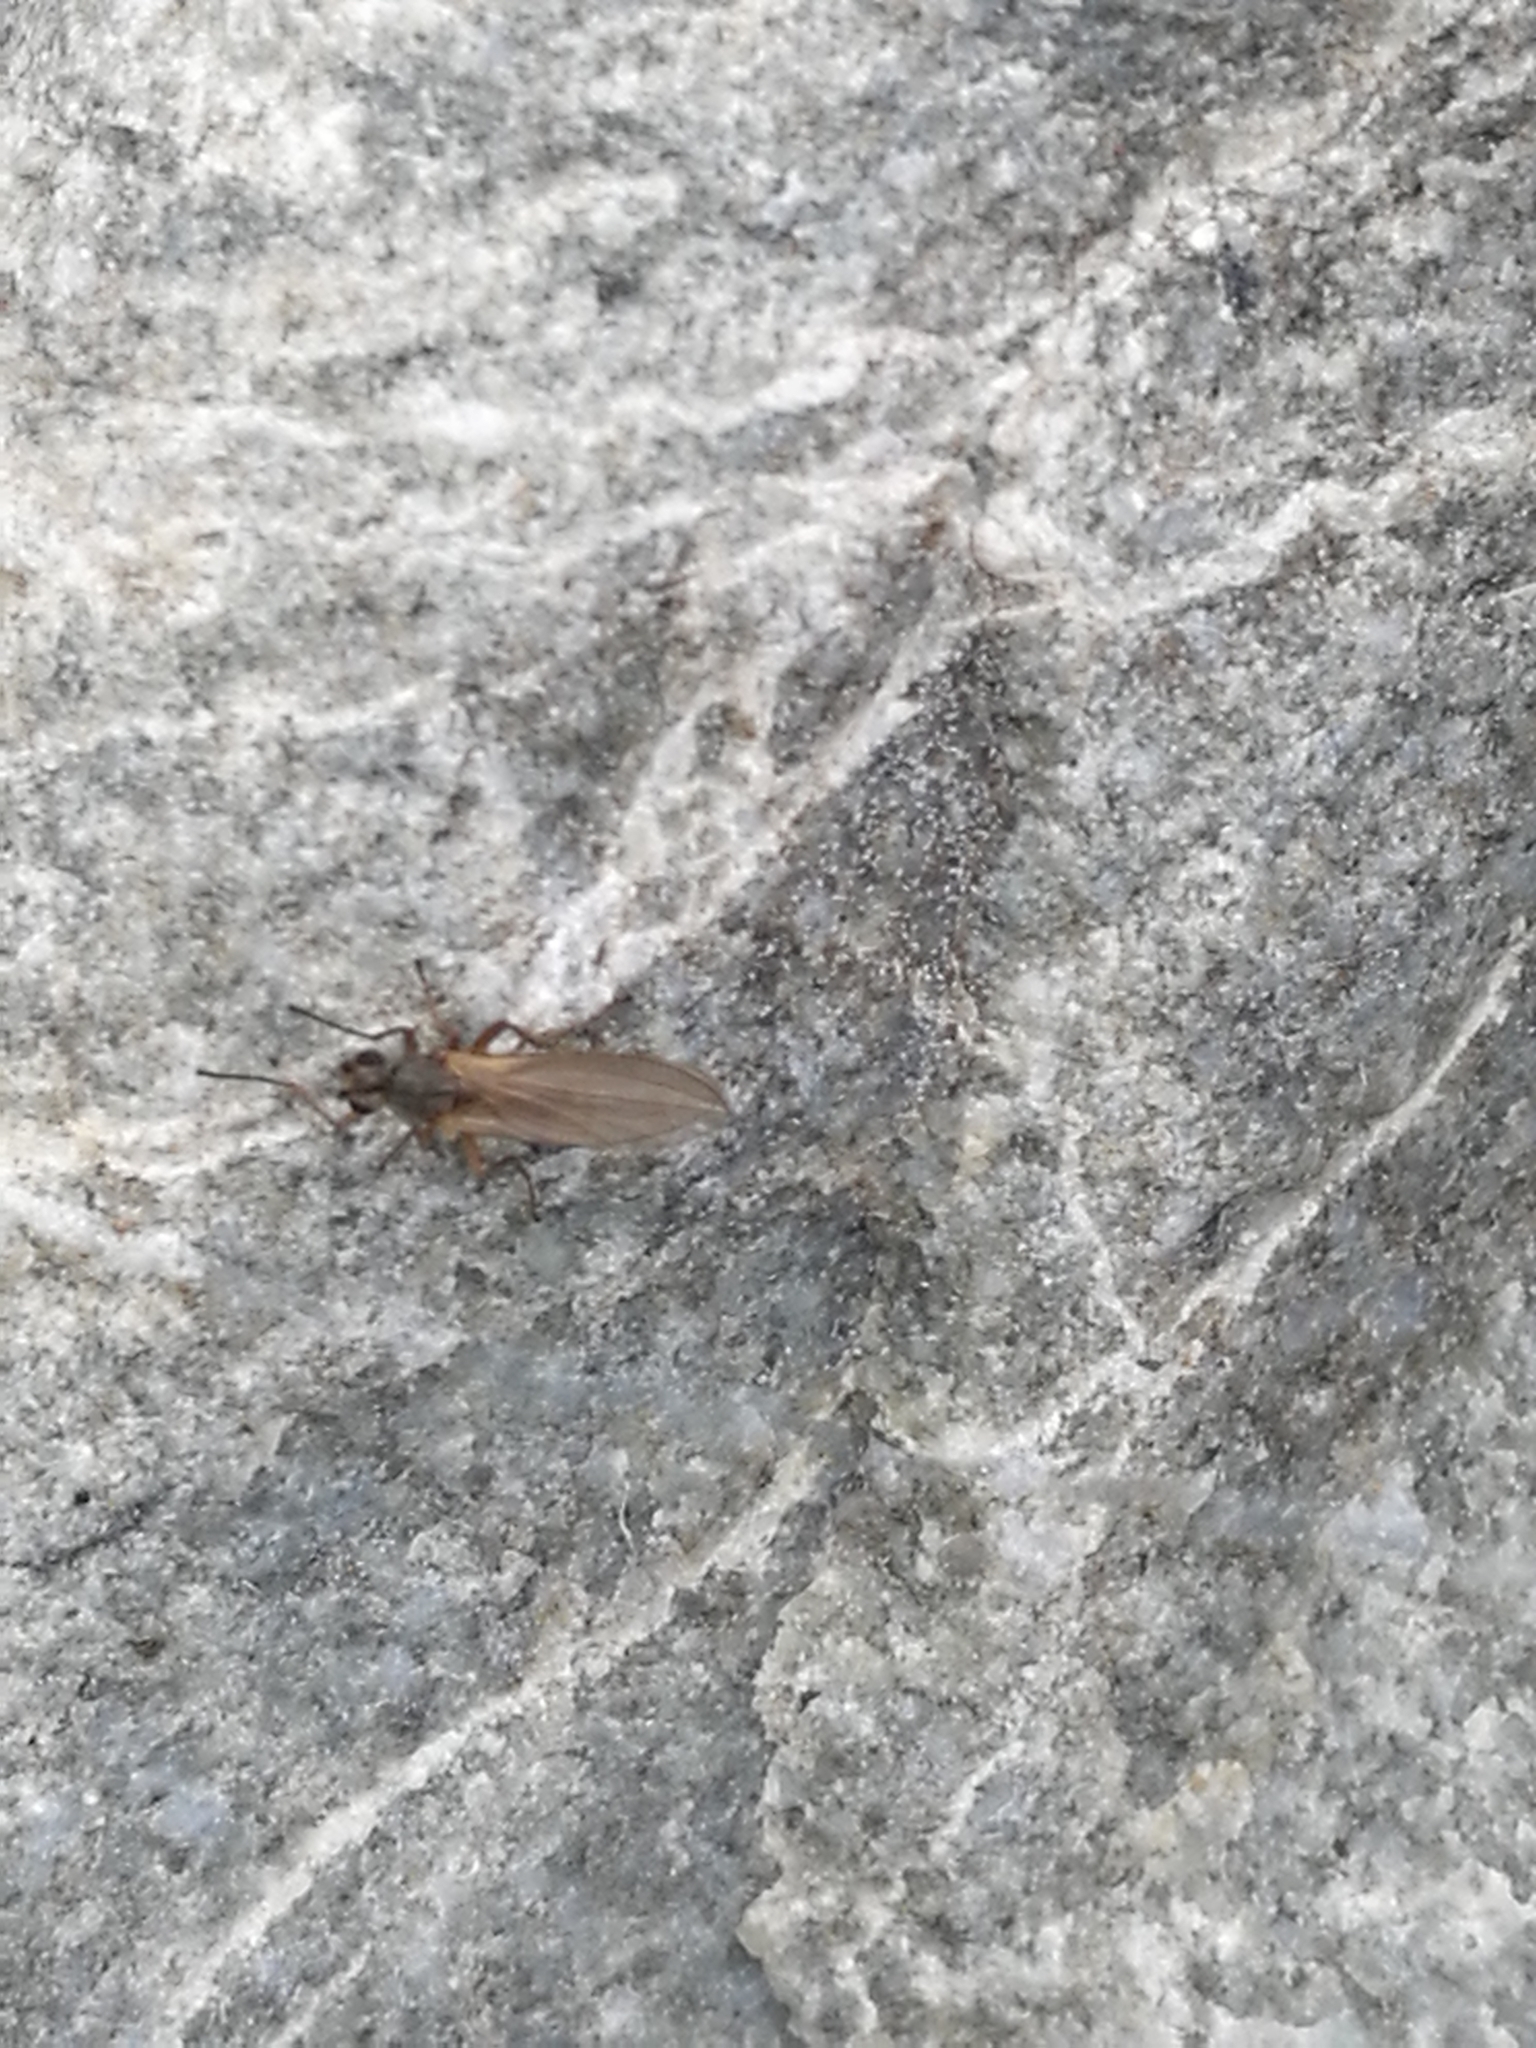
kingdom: Animalia
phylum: Arthropoda
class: Insecta
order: Diptera
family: Lonchopteridae
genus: Lonchoptera
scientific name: Lonchoptera bifurcata
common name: Spear-winged fly
